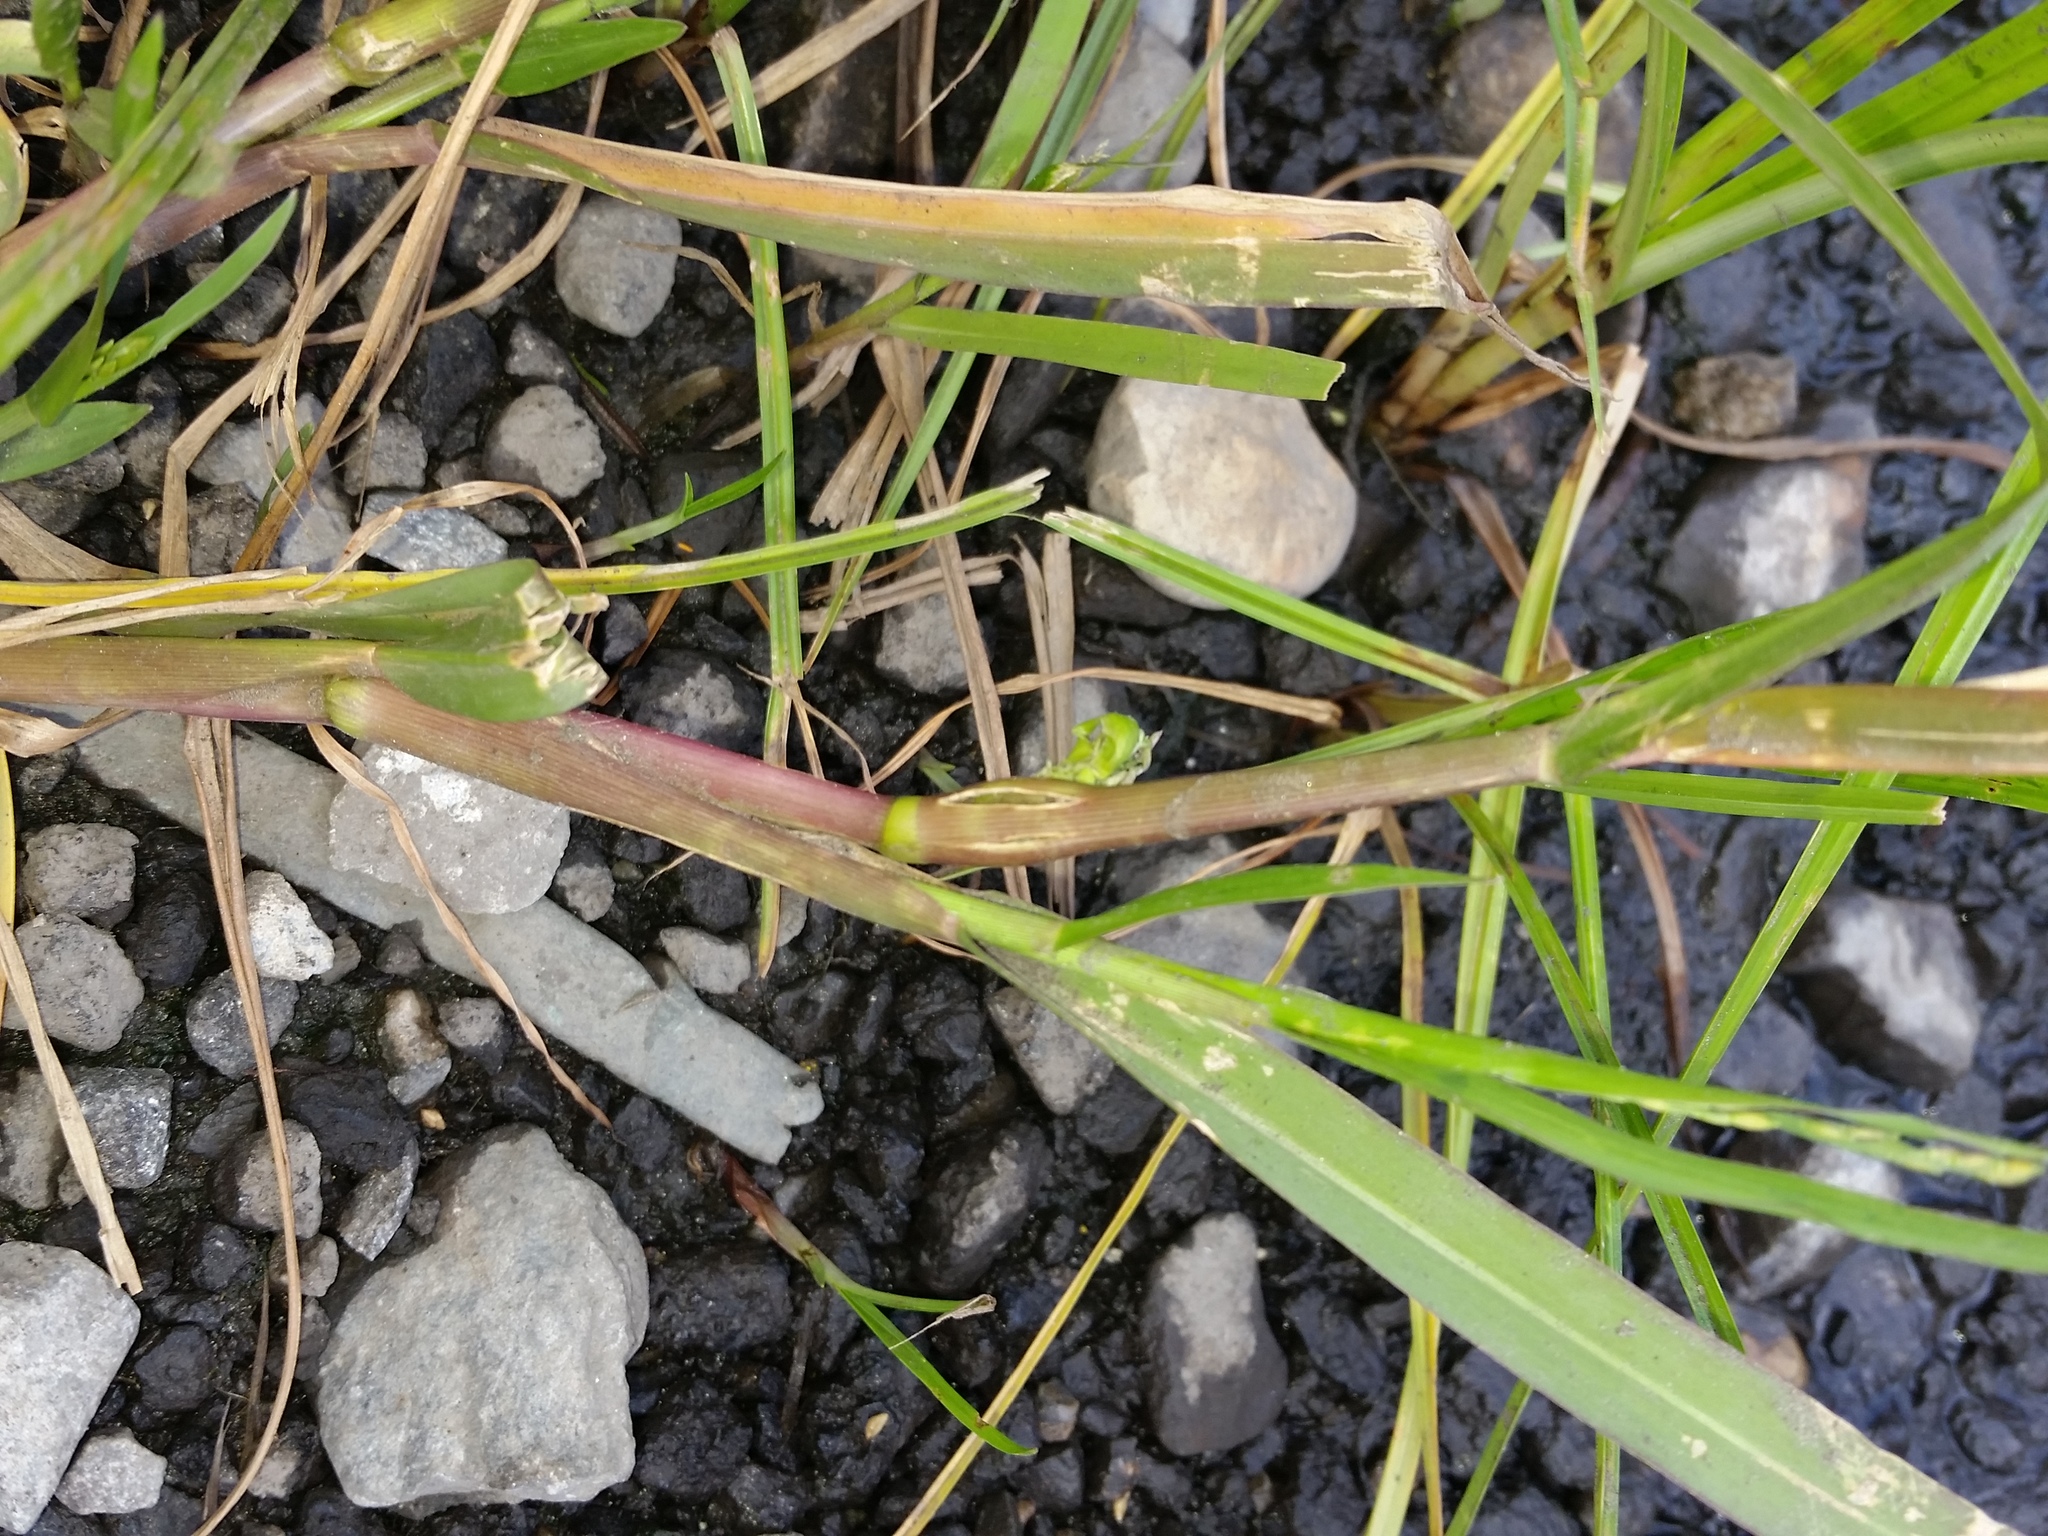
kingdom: Plantae
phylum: Tracheophyta
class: Liliopsida
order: Poales
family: Poaceae
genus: Panicum
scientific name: Panicum dichotomiflorum
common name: Autumn millet
